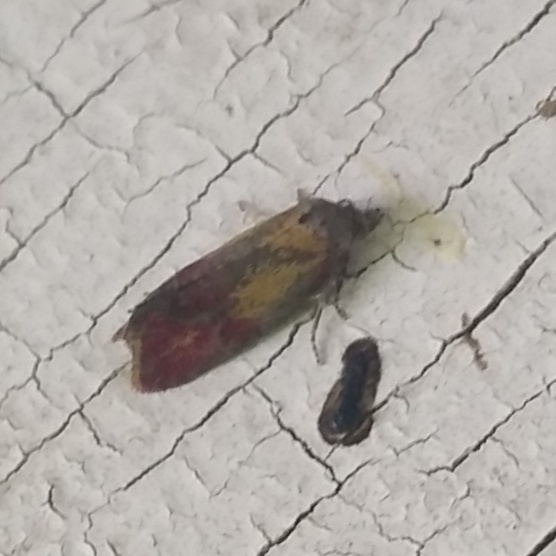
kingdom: Animalia
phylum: Arthropoda
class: Insecta
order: Lepidoptera
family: Tortricidae
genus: Conchylis
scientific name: Conchylis oenotherana
